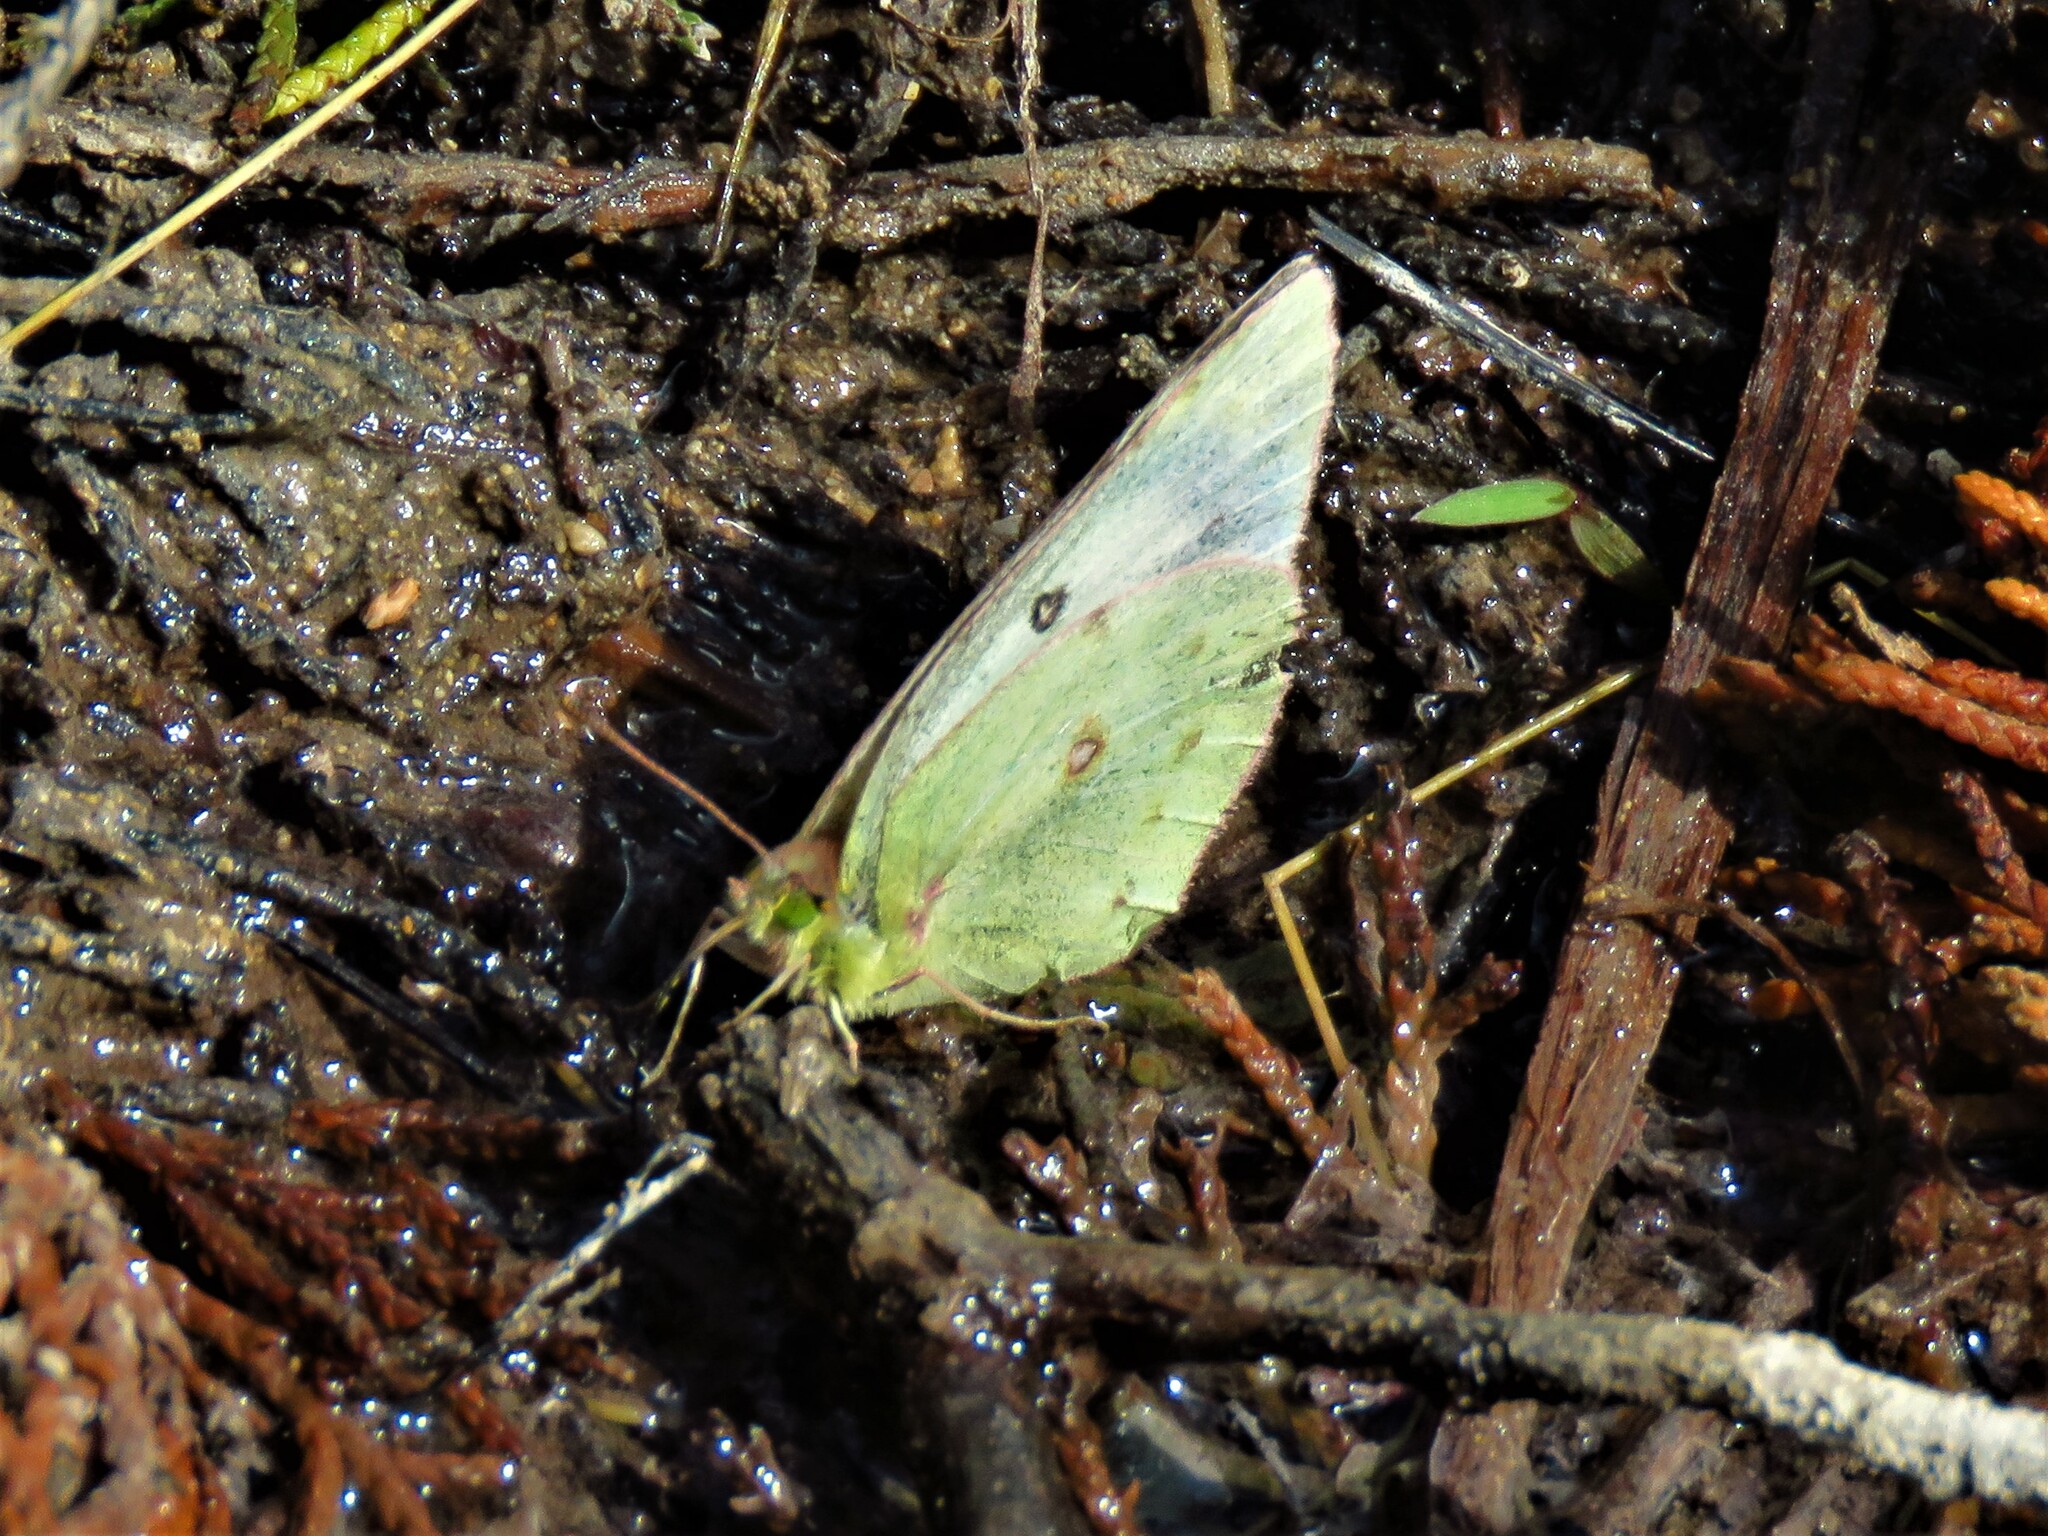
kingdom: Animalia
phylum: Arthropoda
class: Insecta
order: Lepidoptera
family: Pieridae
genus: Colias
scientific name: Colias eurytheme
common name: Alfalfa butterfly
